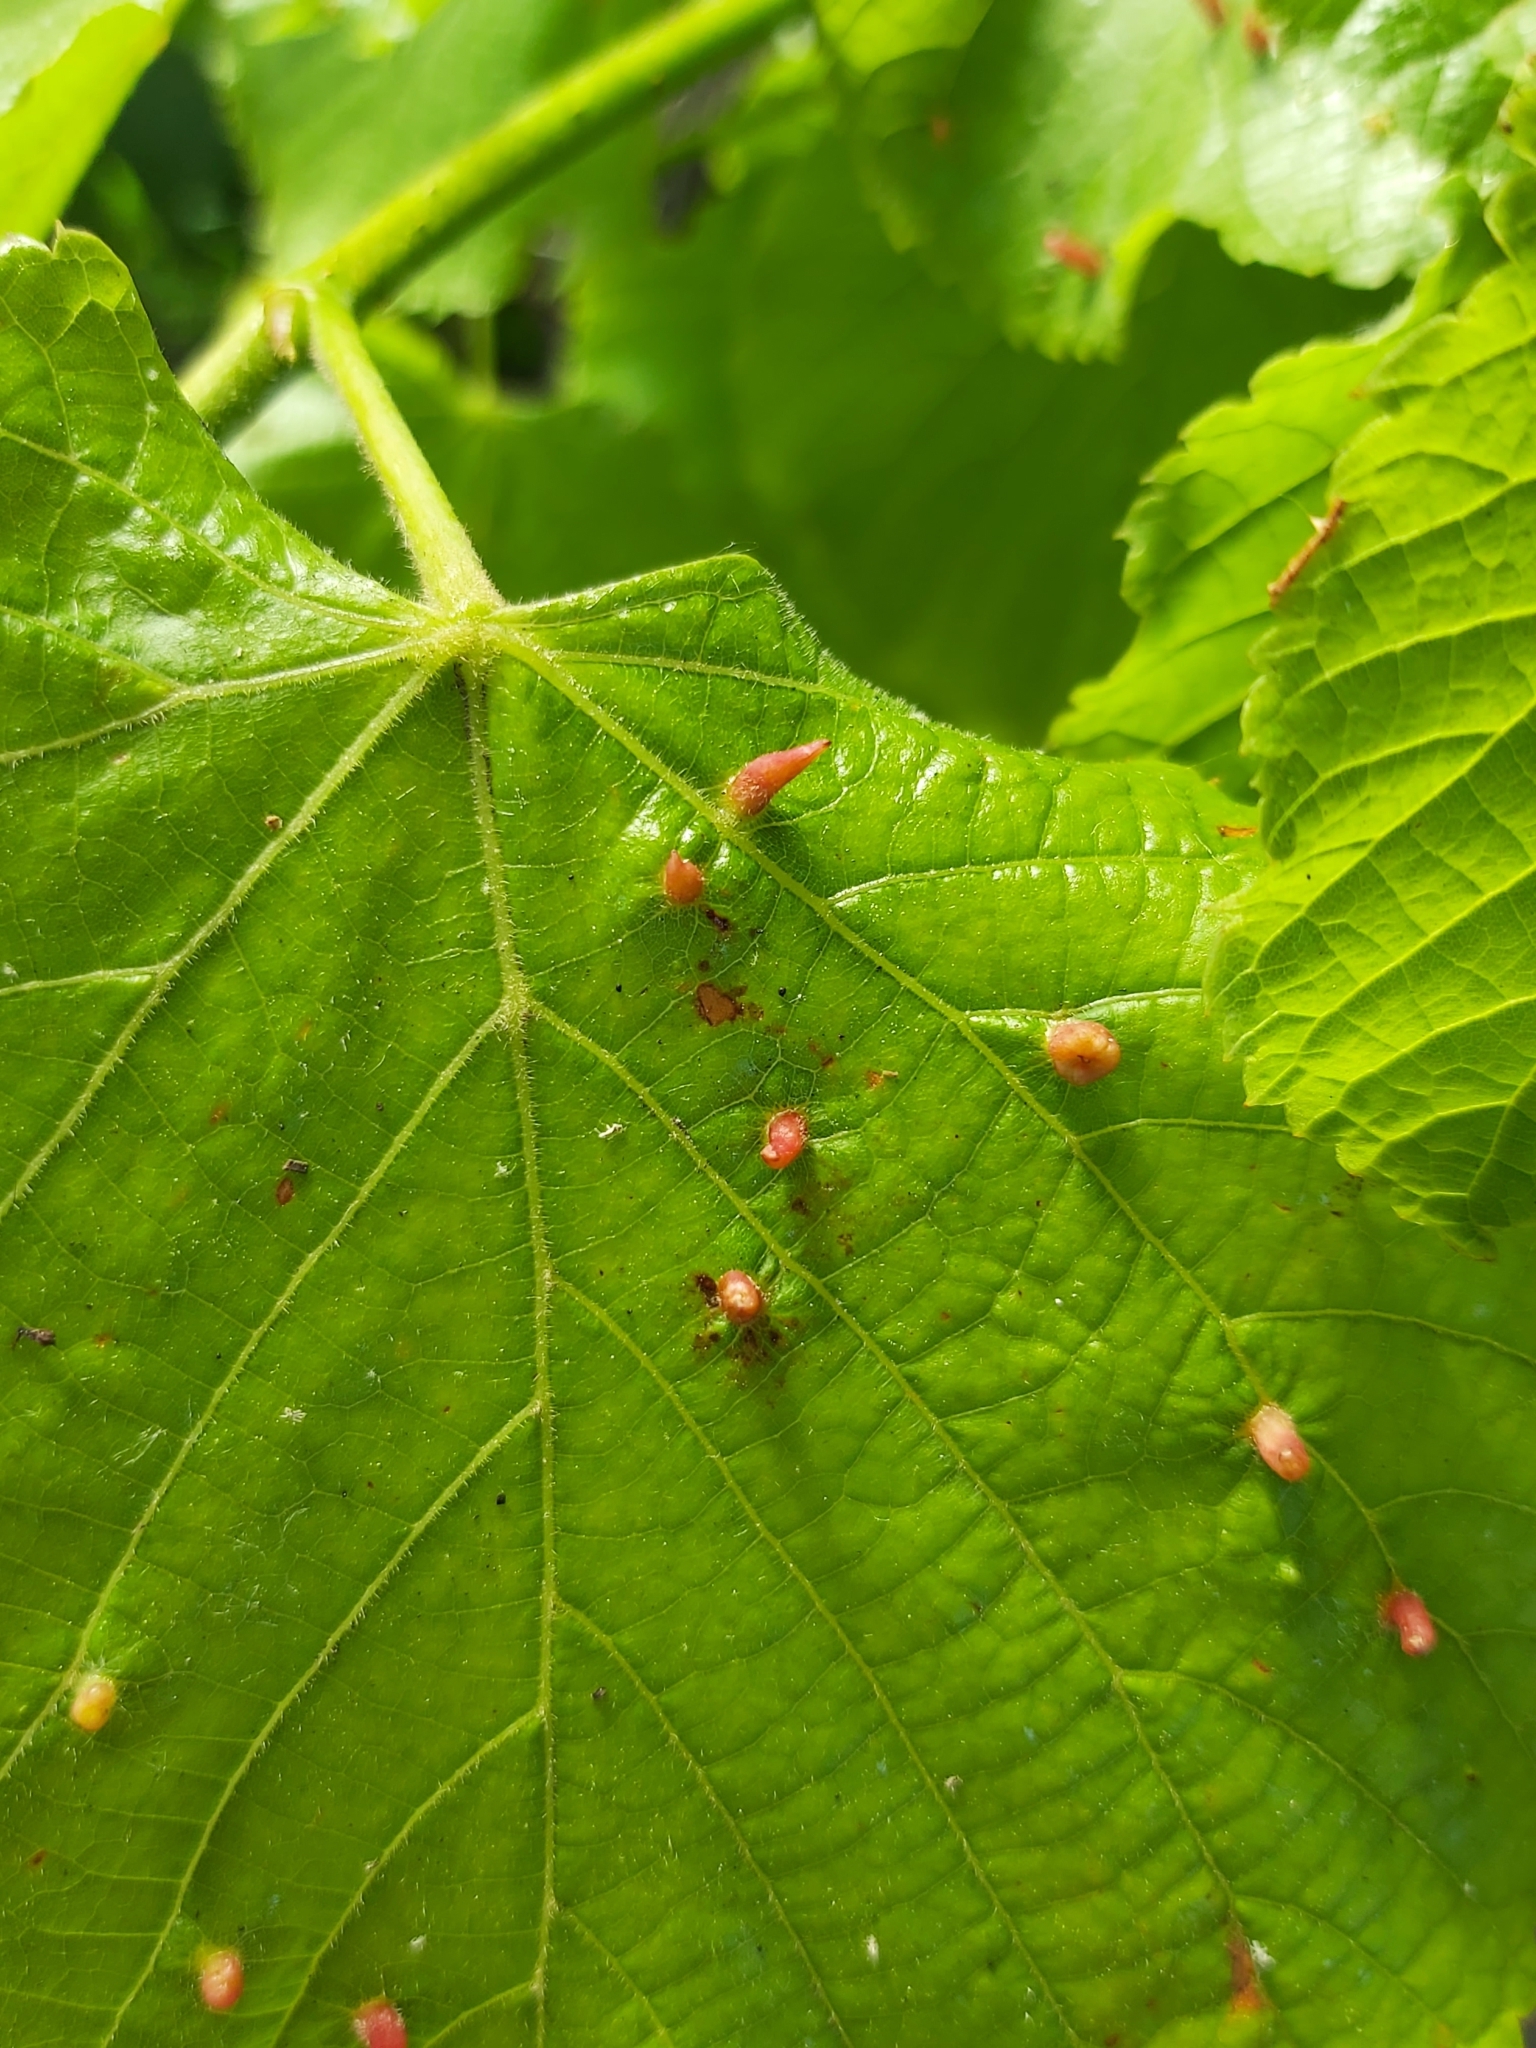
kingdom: Animalia
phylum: Arthropoda
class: Arachnida
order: Trombidiformes
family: Eriophyidae
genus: Eriophyes
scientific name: Eriophyes tiliae
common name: Red nail gall mite
